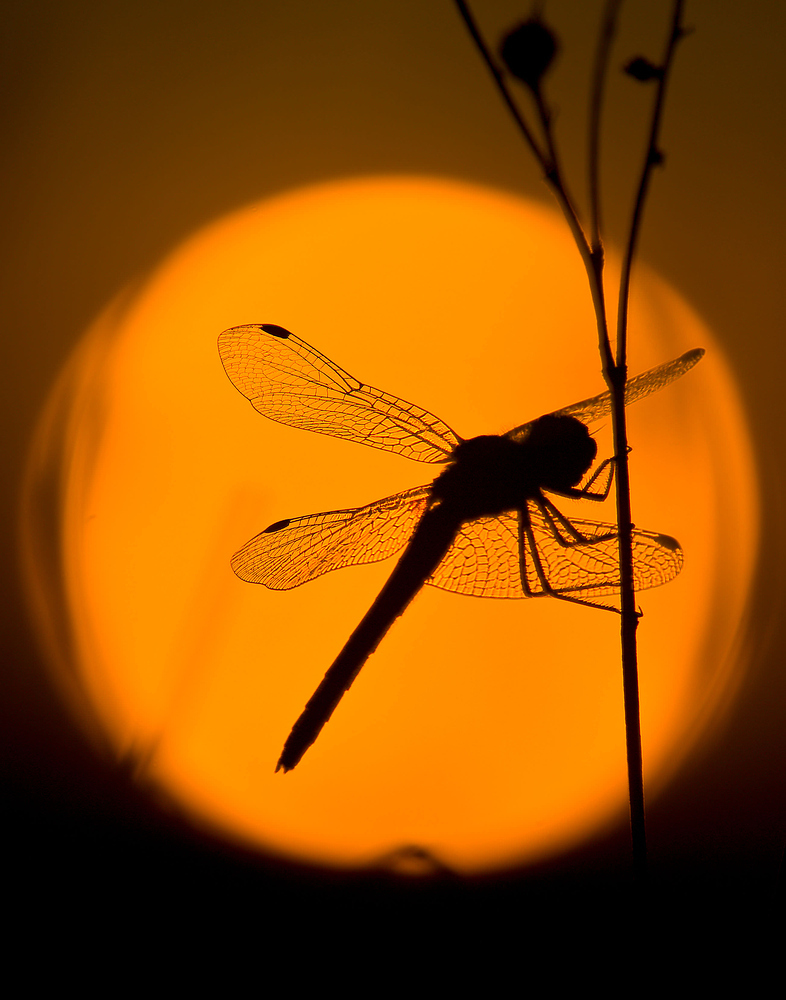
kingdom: Animalia
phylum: Arthropoda
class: Insecta
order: Odonata
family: Libellulidae
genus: Sympetrum
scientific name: Sympetrum fonscolombii
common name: Red-veined darter
